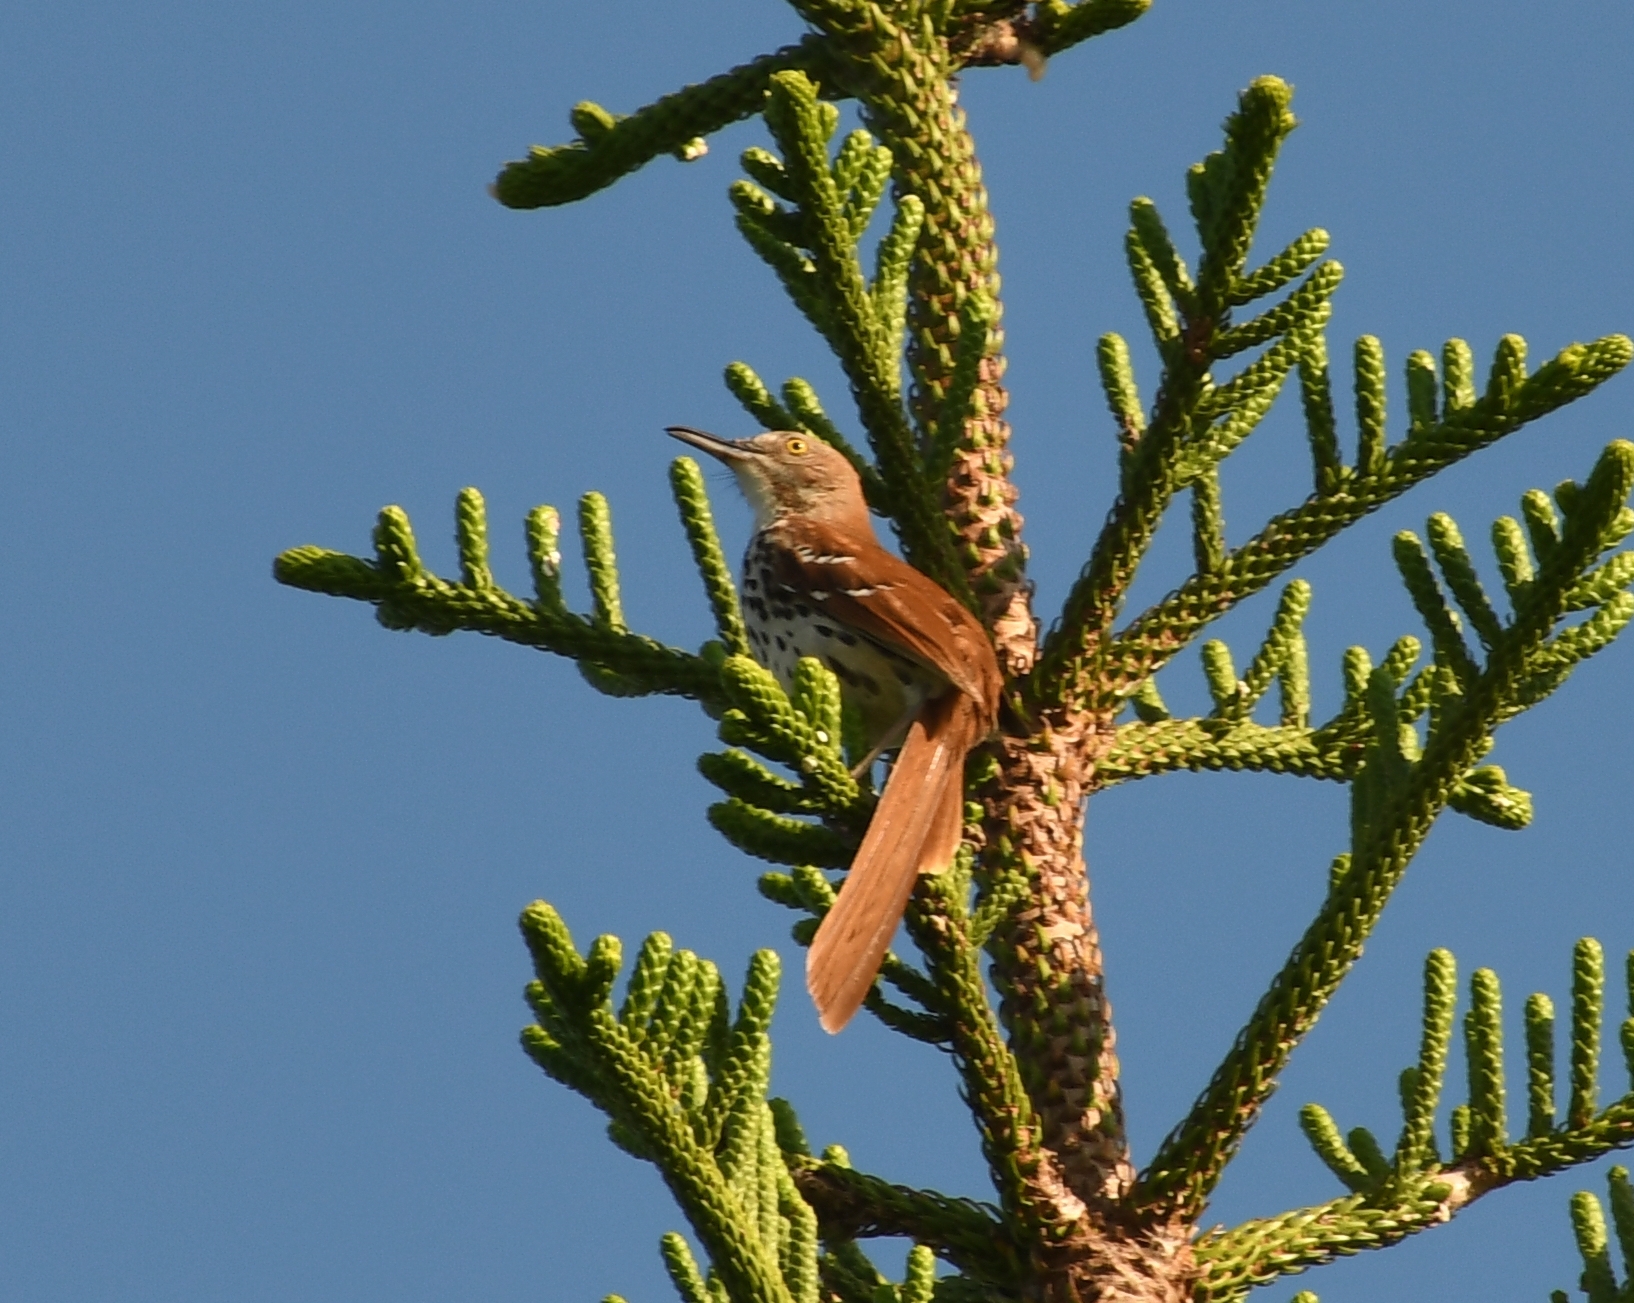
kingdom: Animalia
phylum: Chordata
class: Aves
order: Passeriformes
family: Mimidae
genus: Toxostoma
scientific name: Toxostoma rufum
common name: Brown thrasher
